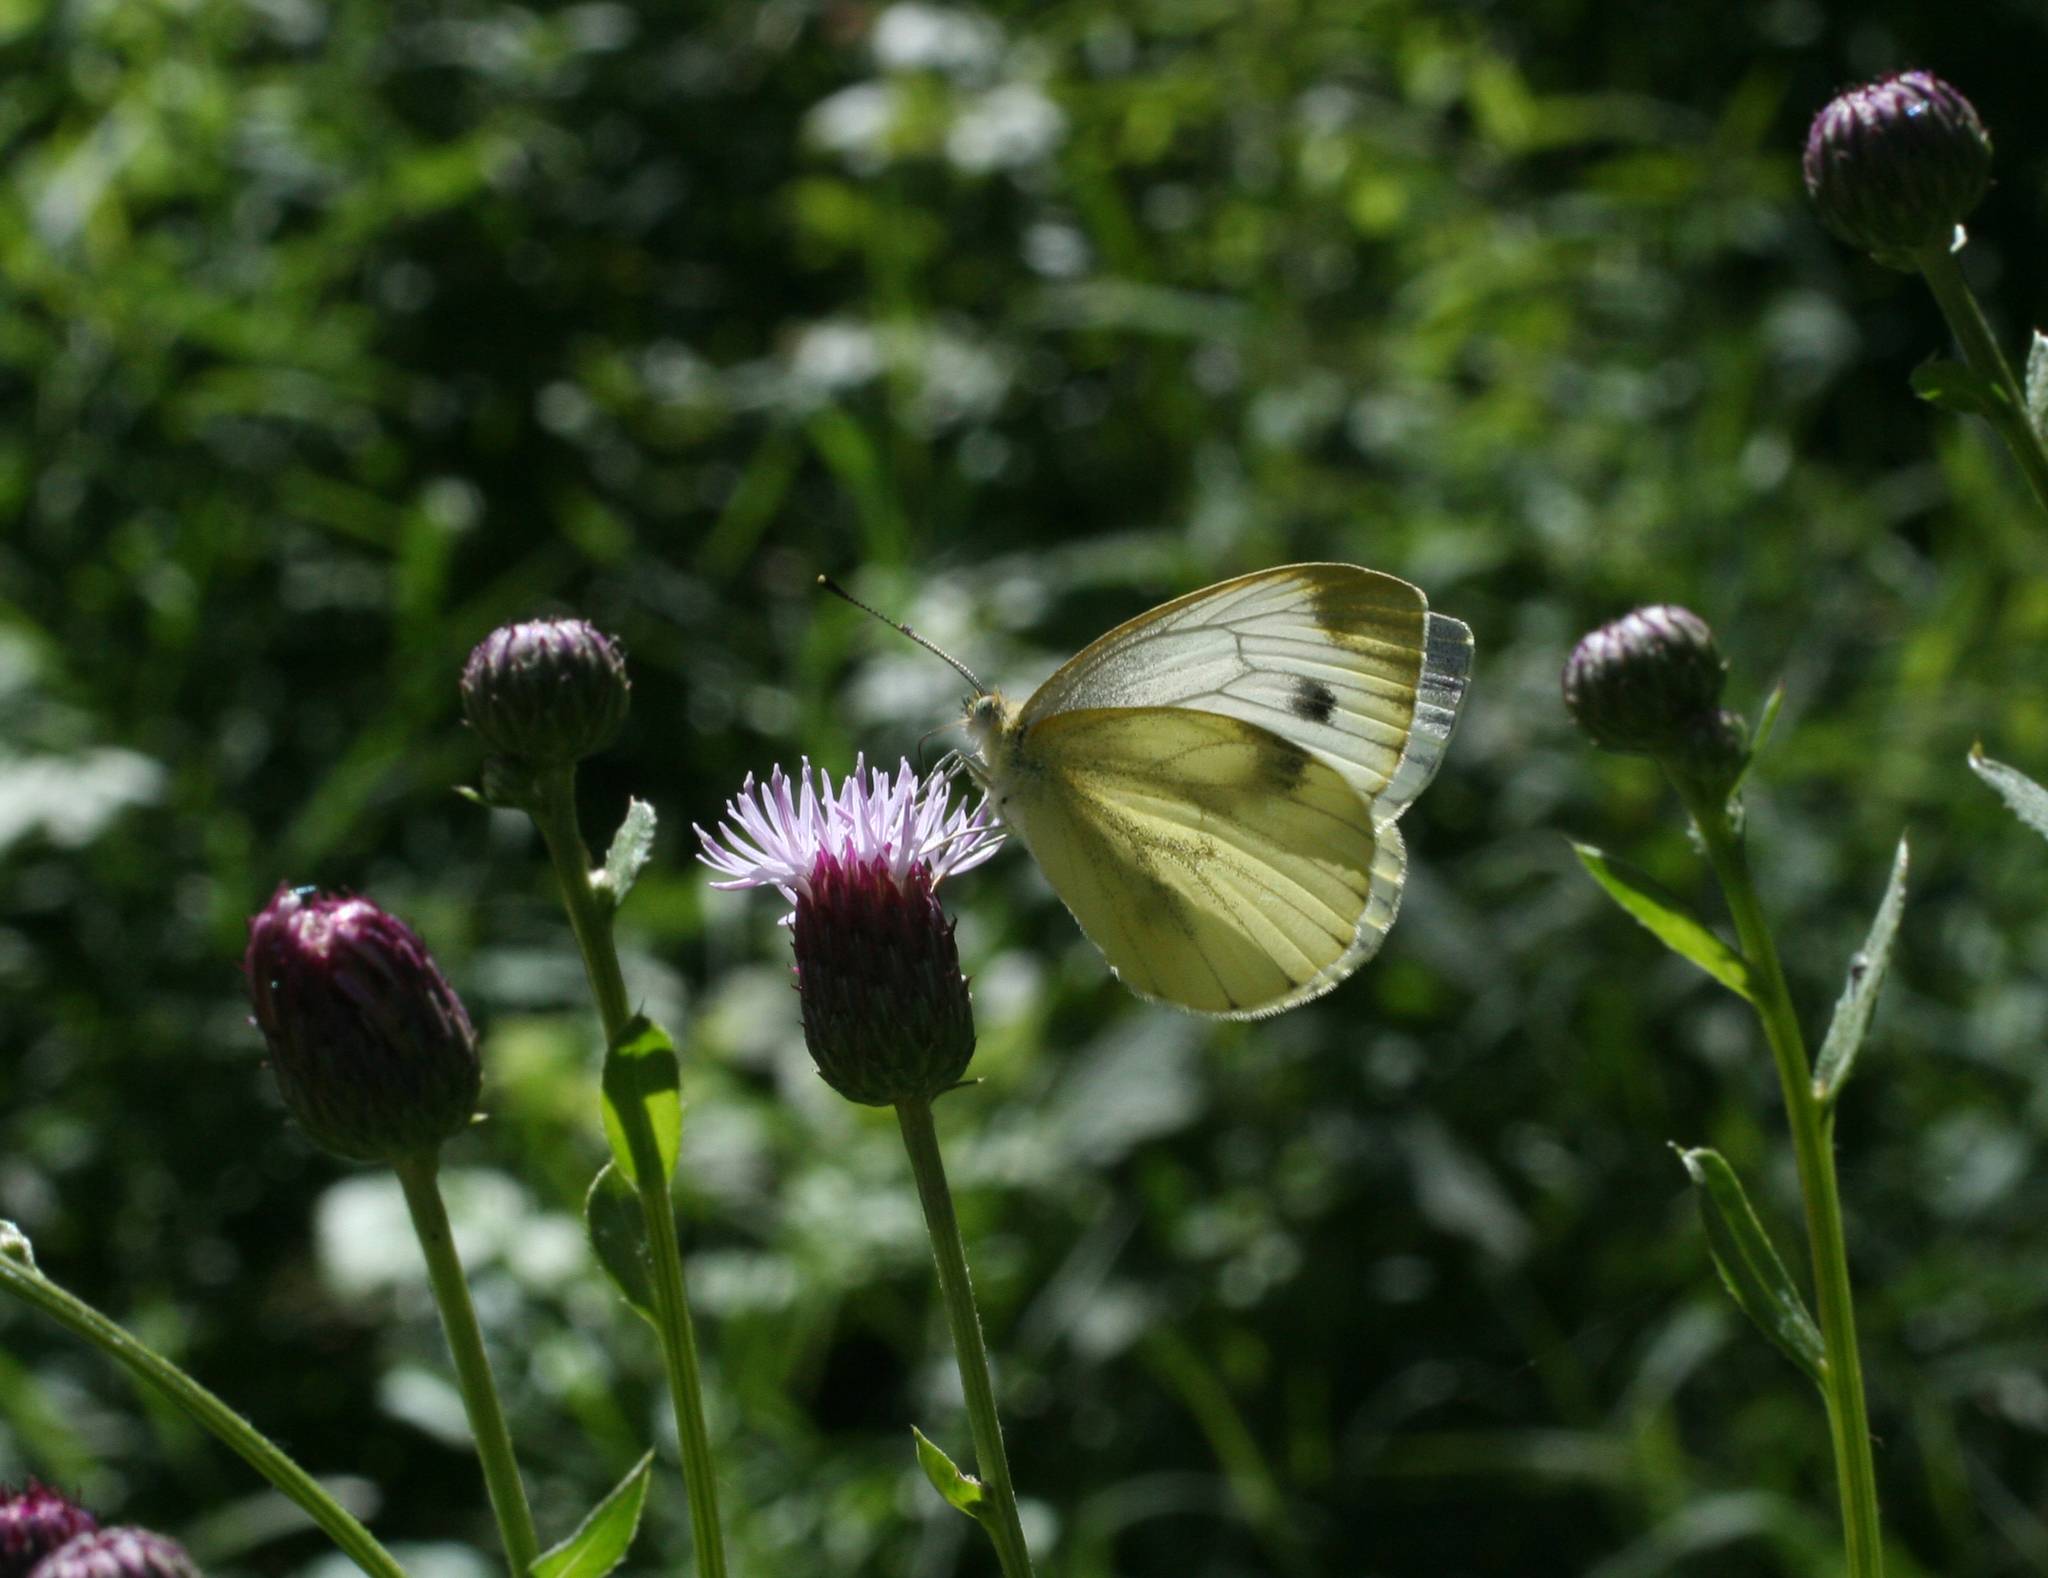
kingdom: Animalia
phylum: Arthropoda
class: Insecta
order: Lepidoptera
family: Pieridae
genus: Pieris
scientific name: Pieris napi
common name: Green-veined white
